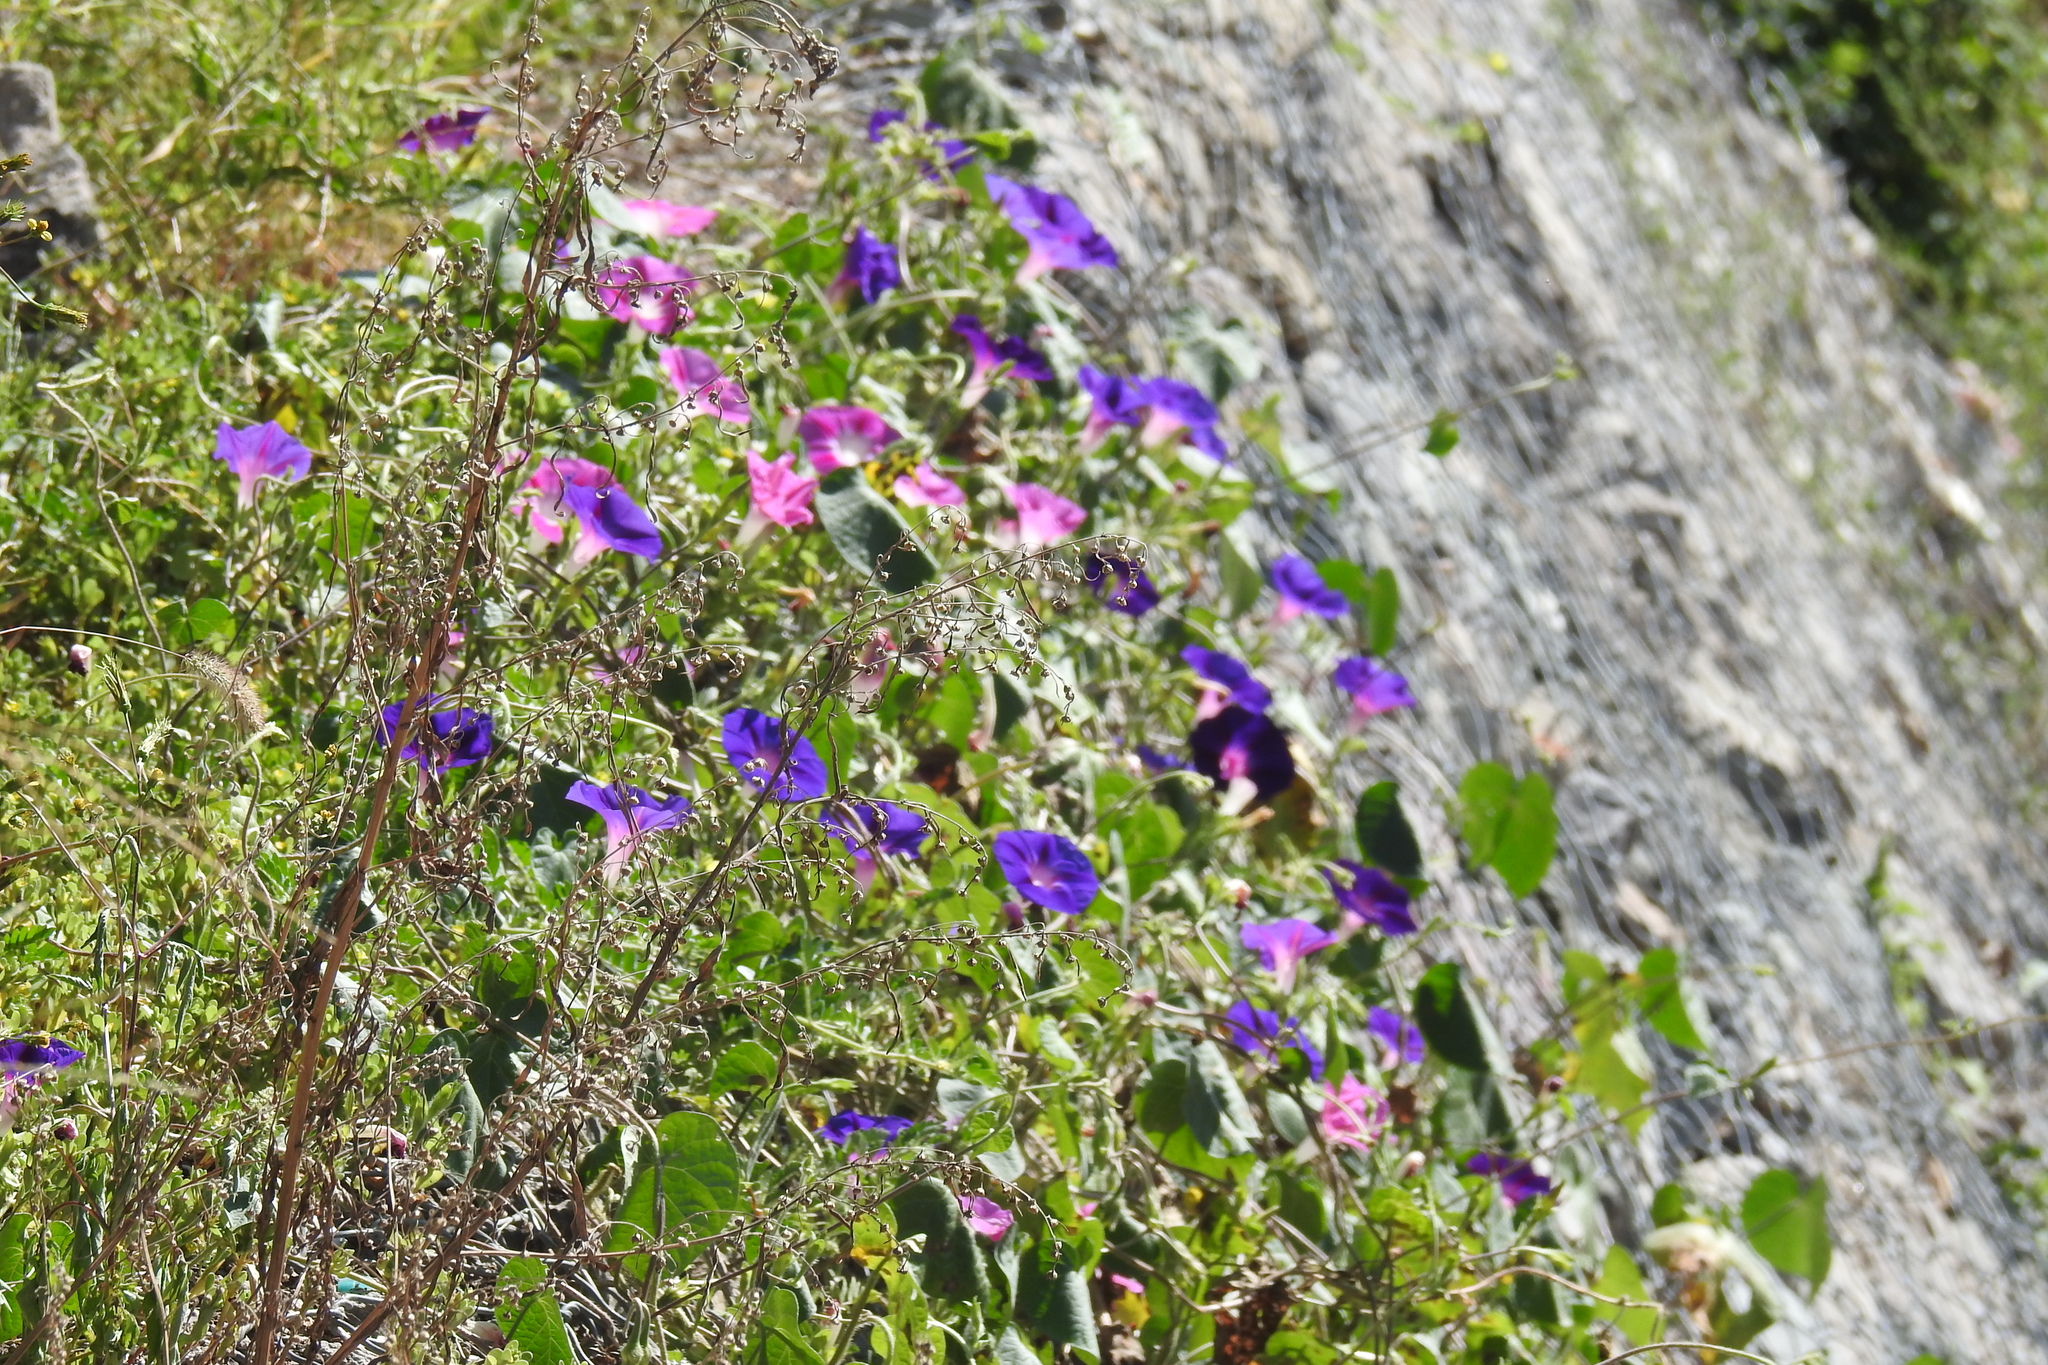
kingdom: Plantae
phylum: Tracheophyta
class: Magnoliopsida
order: Solanales
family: Convolvulaceae
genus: Ipomoea
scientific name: Ipomoea purpurea
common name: Common morning-glory
